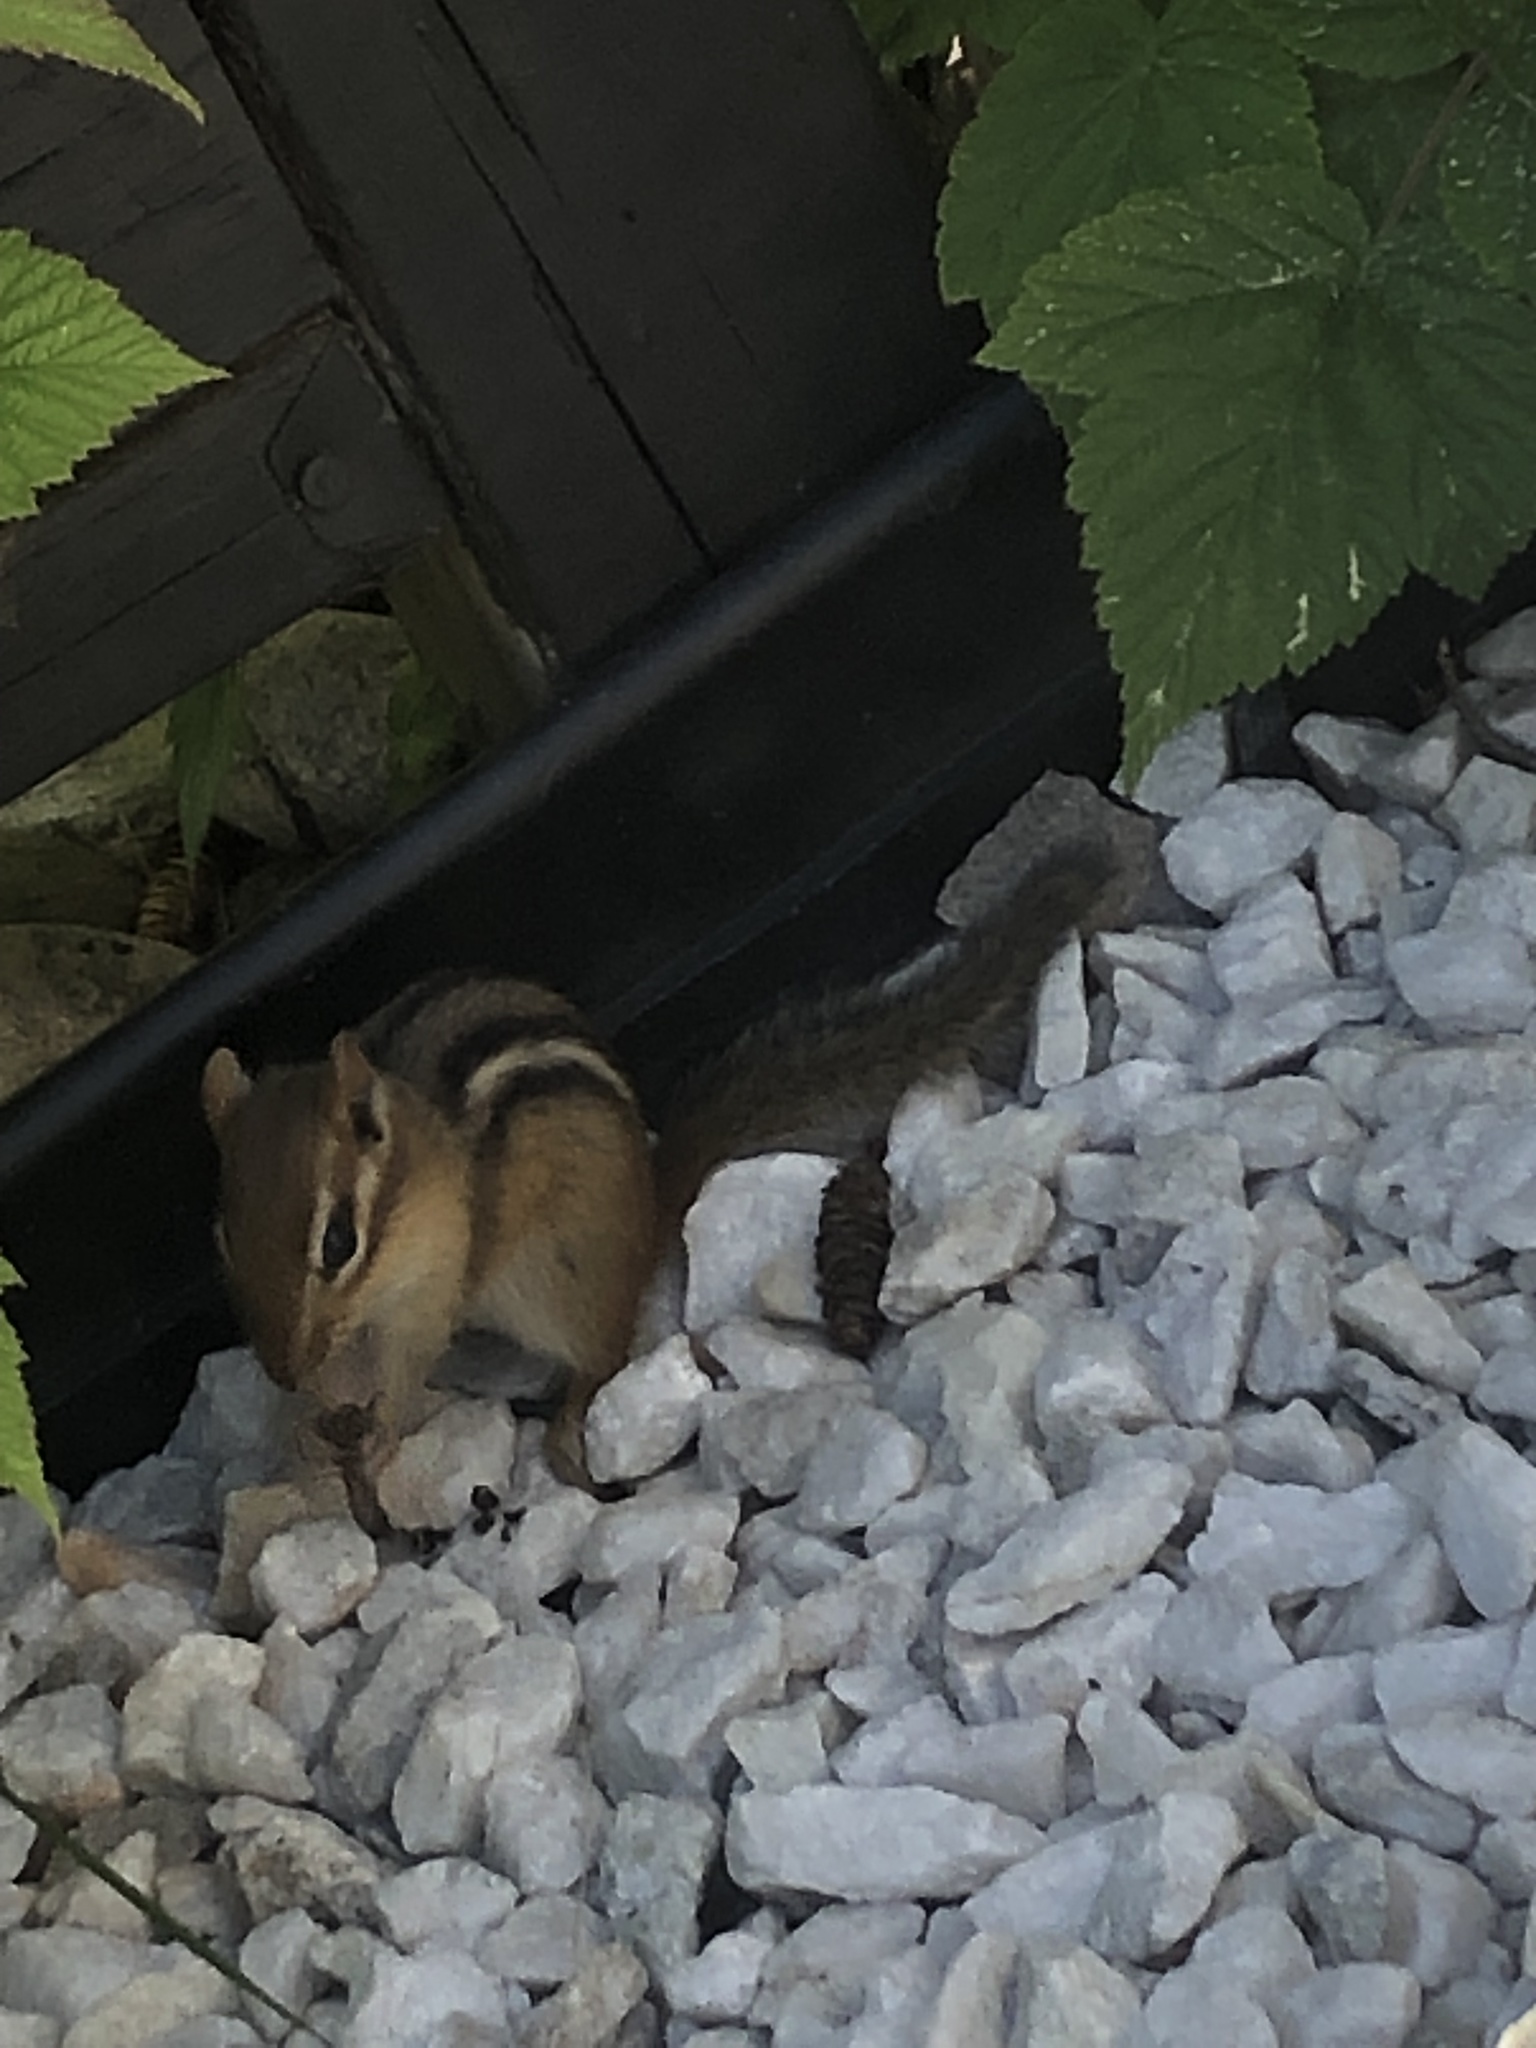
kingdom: Animalia
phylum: Chordata
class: Mammalia
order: Rodentia
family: Sciuridae
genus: Tamias
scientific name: Tamias striatus
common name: Eastern chipmunk
